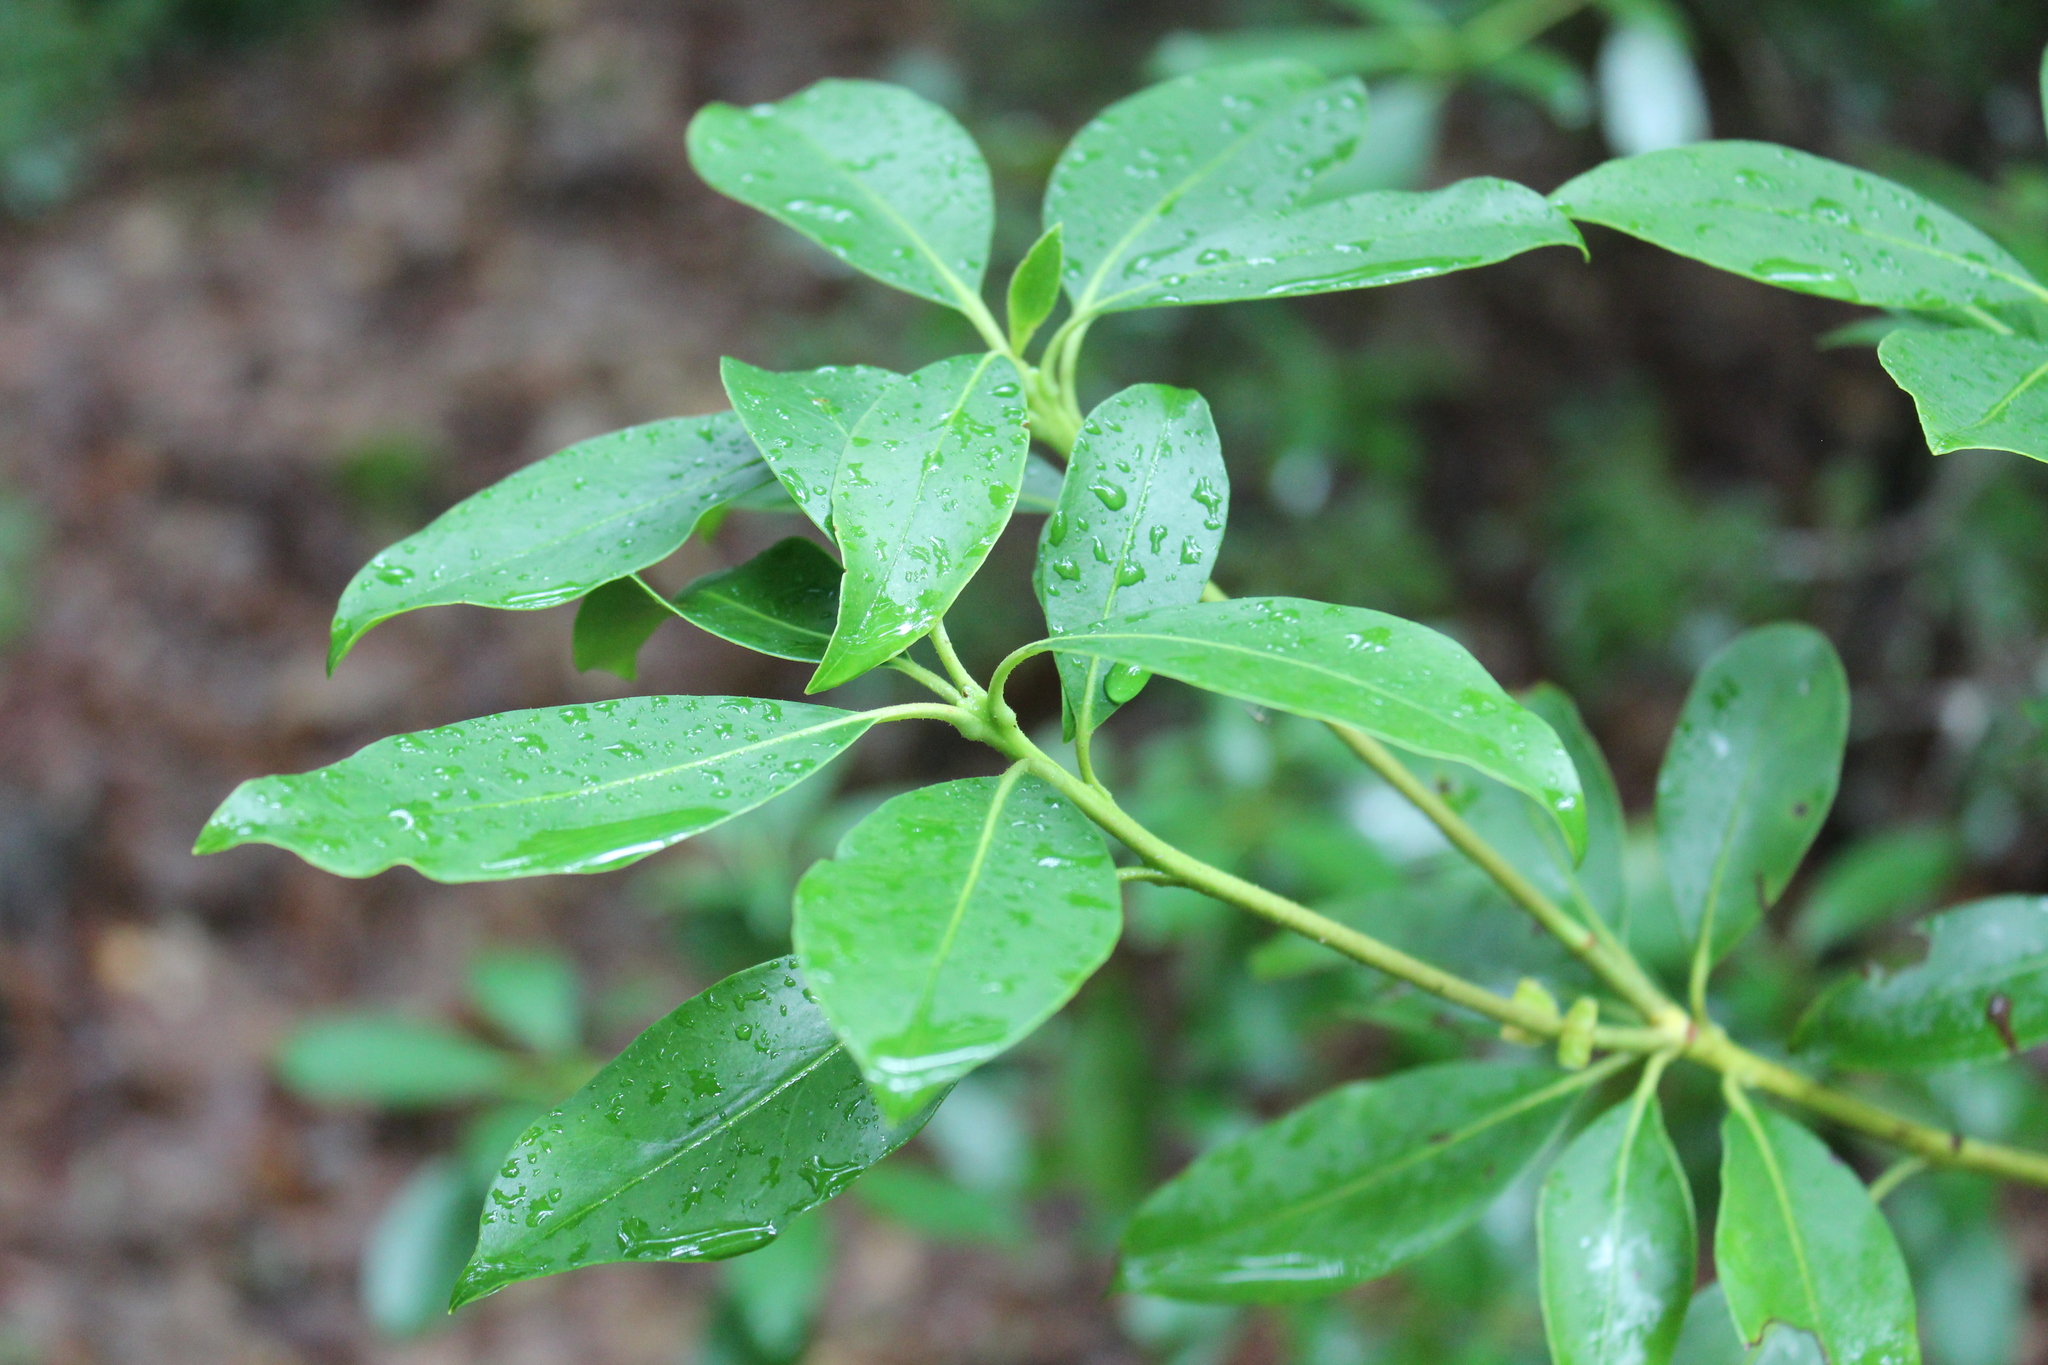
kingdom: Plantae
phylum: Tracheophyta
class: Magnoliopsida
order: Ericales
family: Ericaceae
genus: Kalmia
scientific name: Kalmia latifolia
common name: Mountain-laurel
